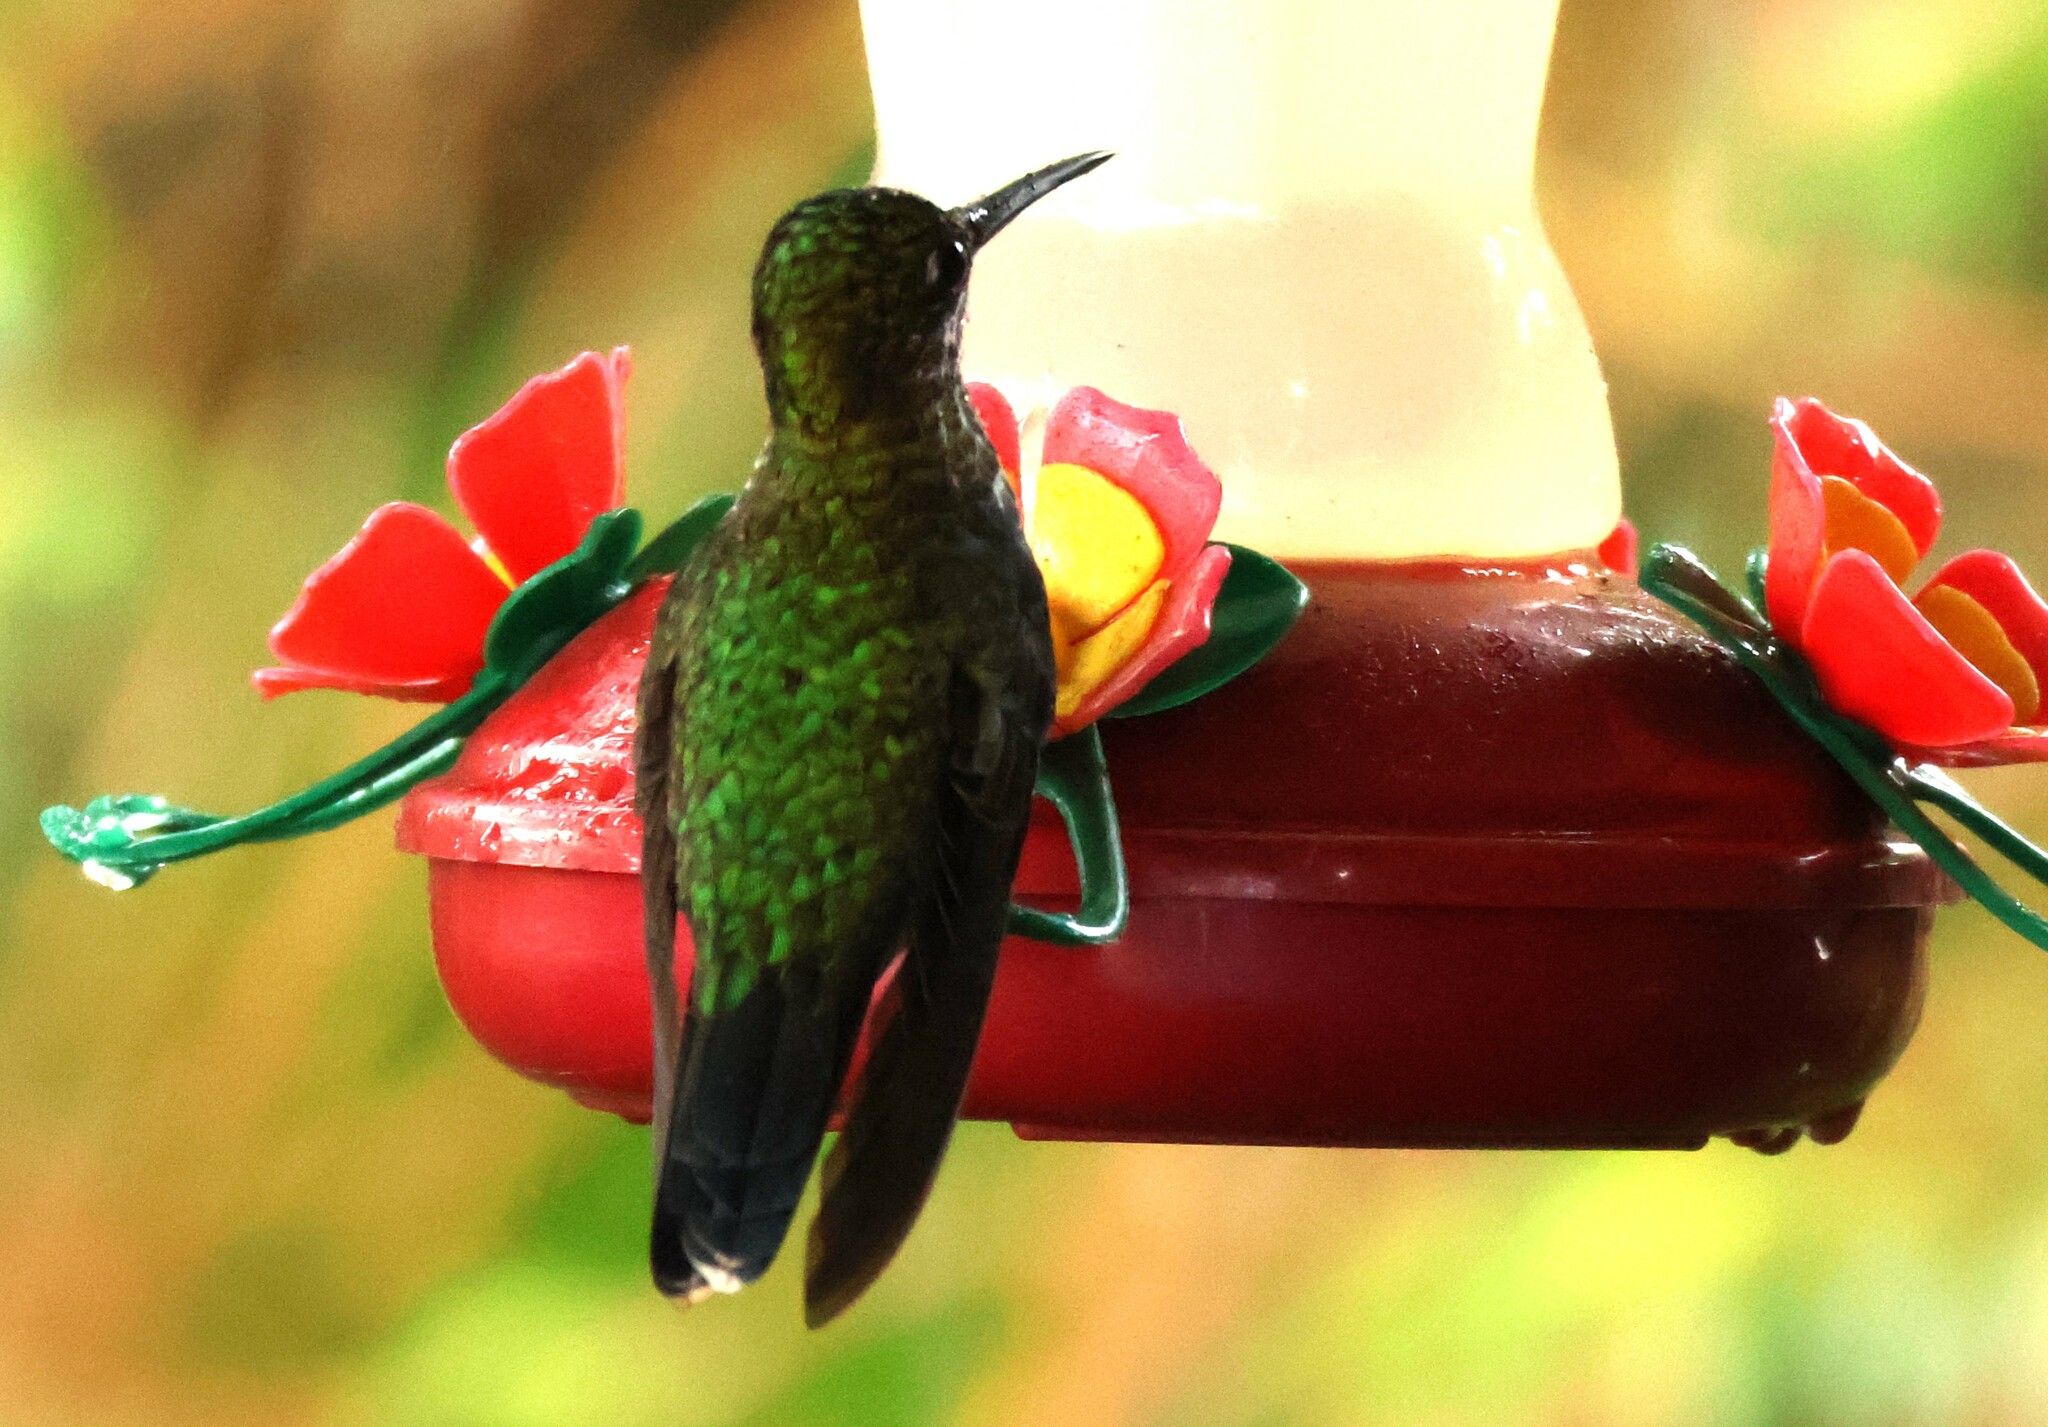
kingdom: Animalia
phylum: Chordata
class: Aves
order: Apodiformes
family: Trochilidae
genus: Heliodoxa
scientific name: Heliodoxa jacula
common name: Green-crowned brilliant
